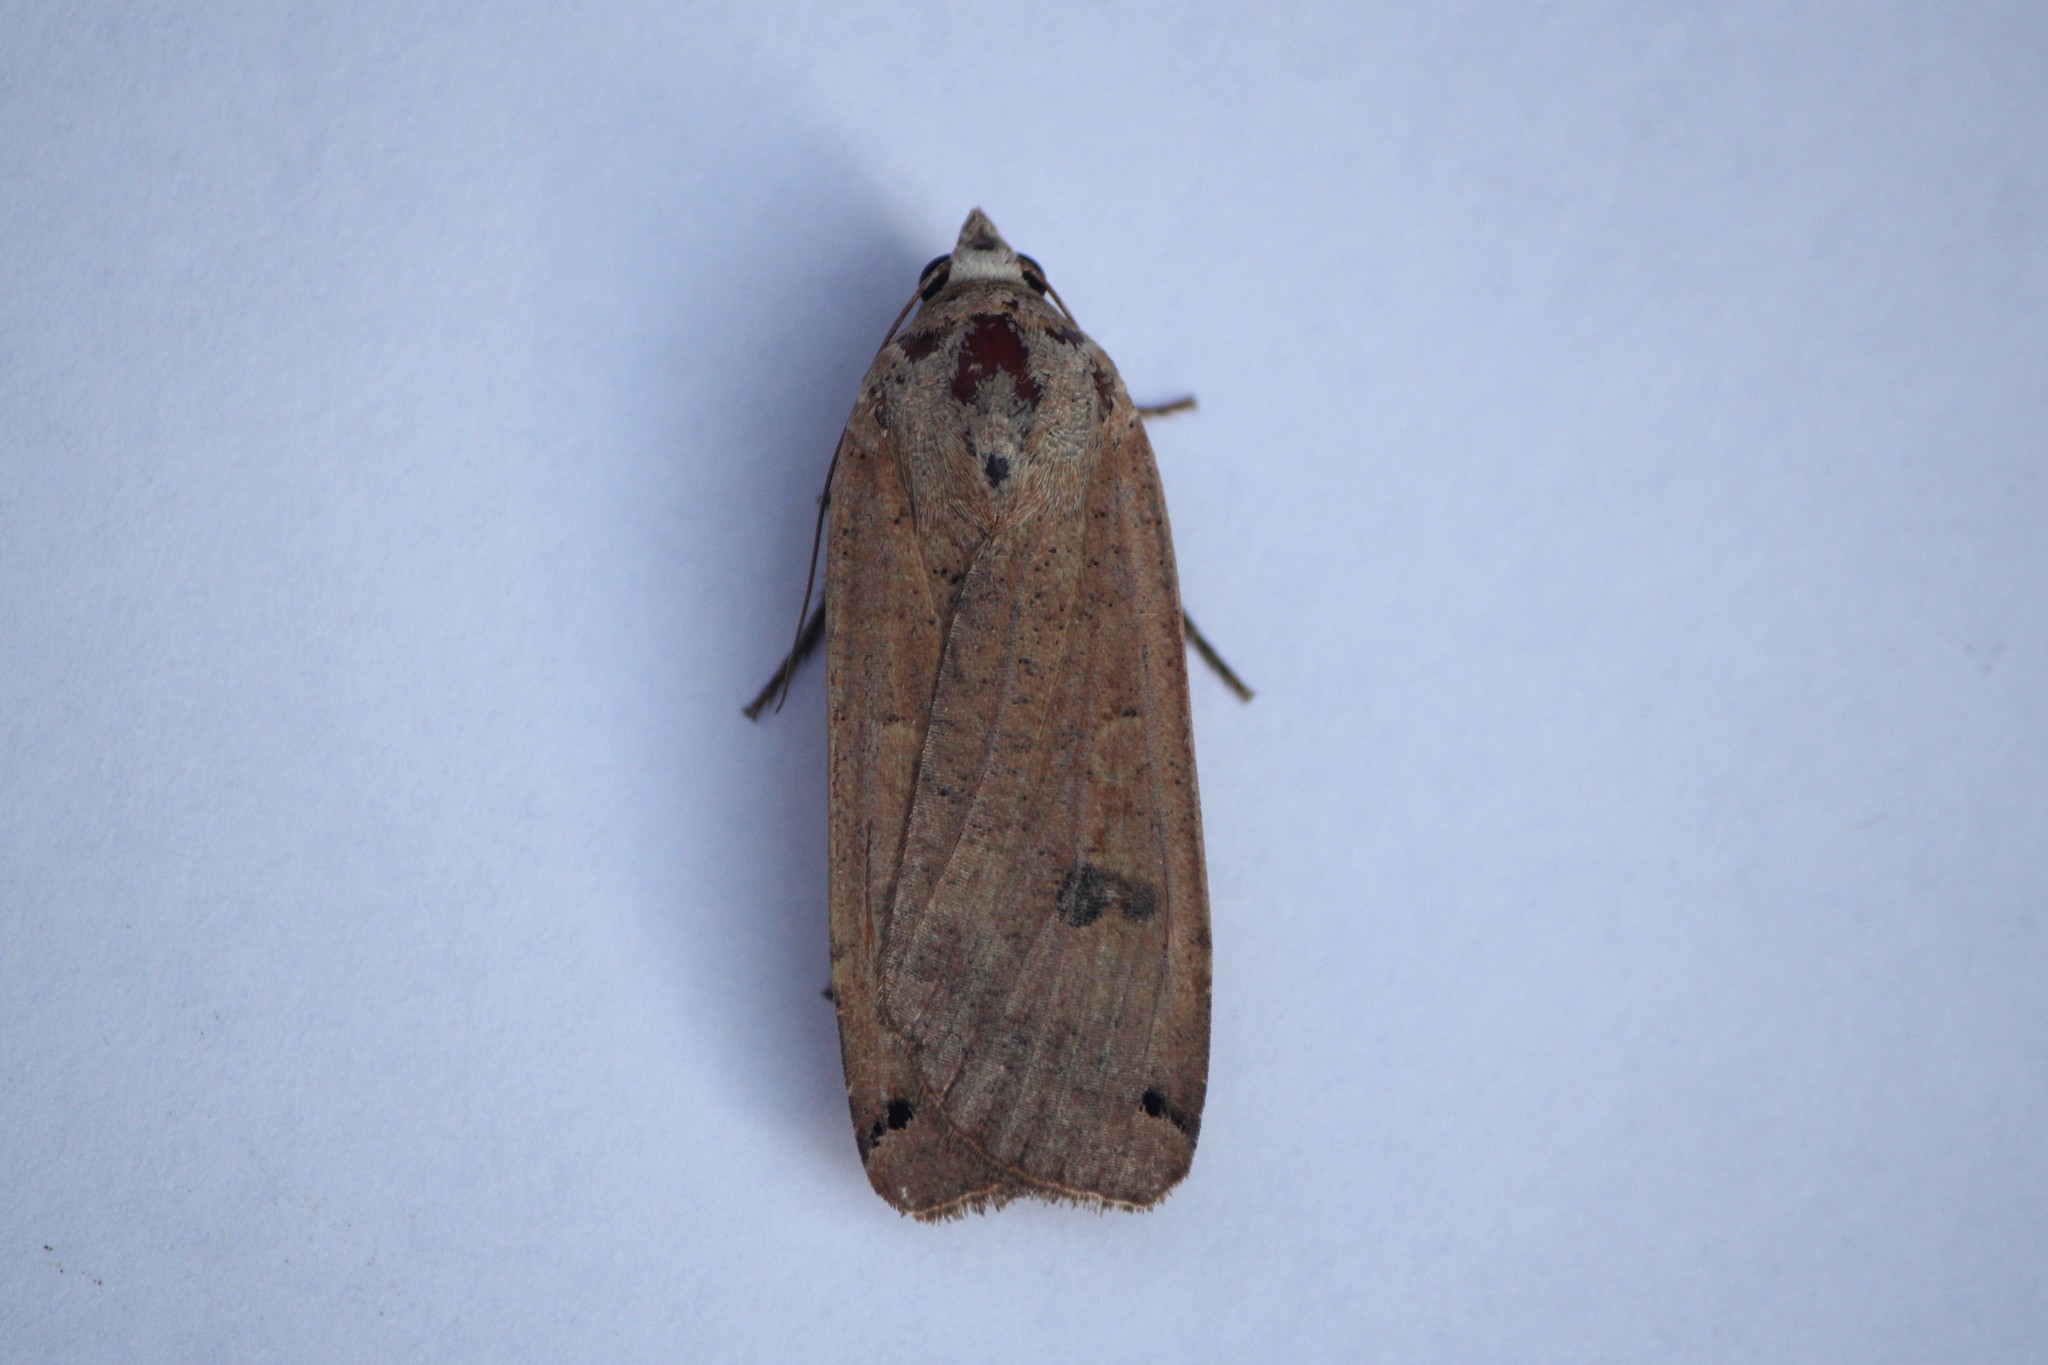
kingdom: Animalia
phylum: Arthropoda
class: Insecta
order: Lepidoptera
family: Noctuidae
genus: Noctua
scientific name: Noctua pronuba
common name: Large yellow underwing
